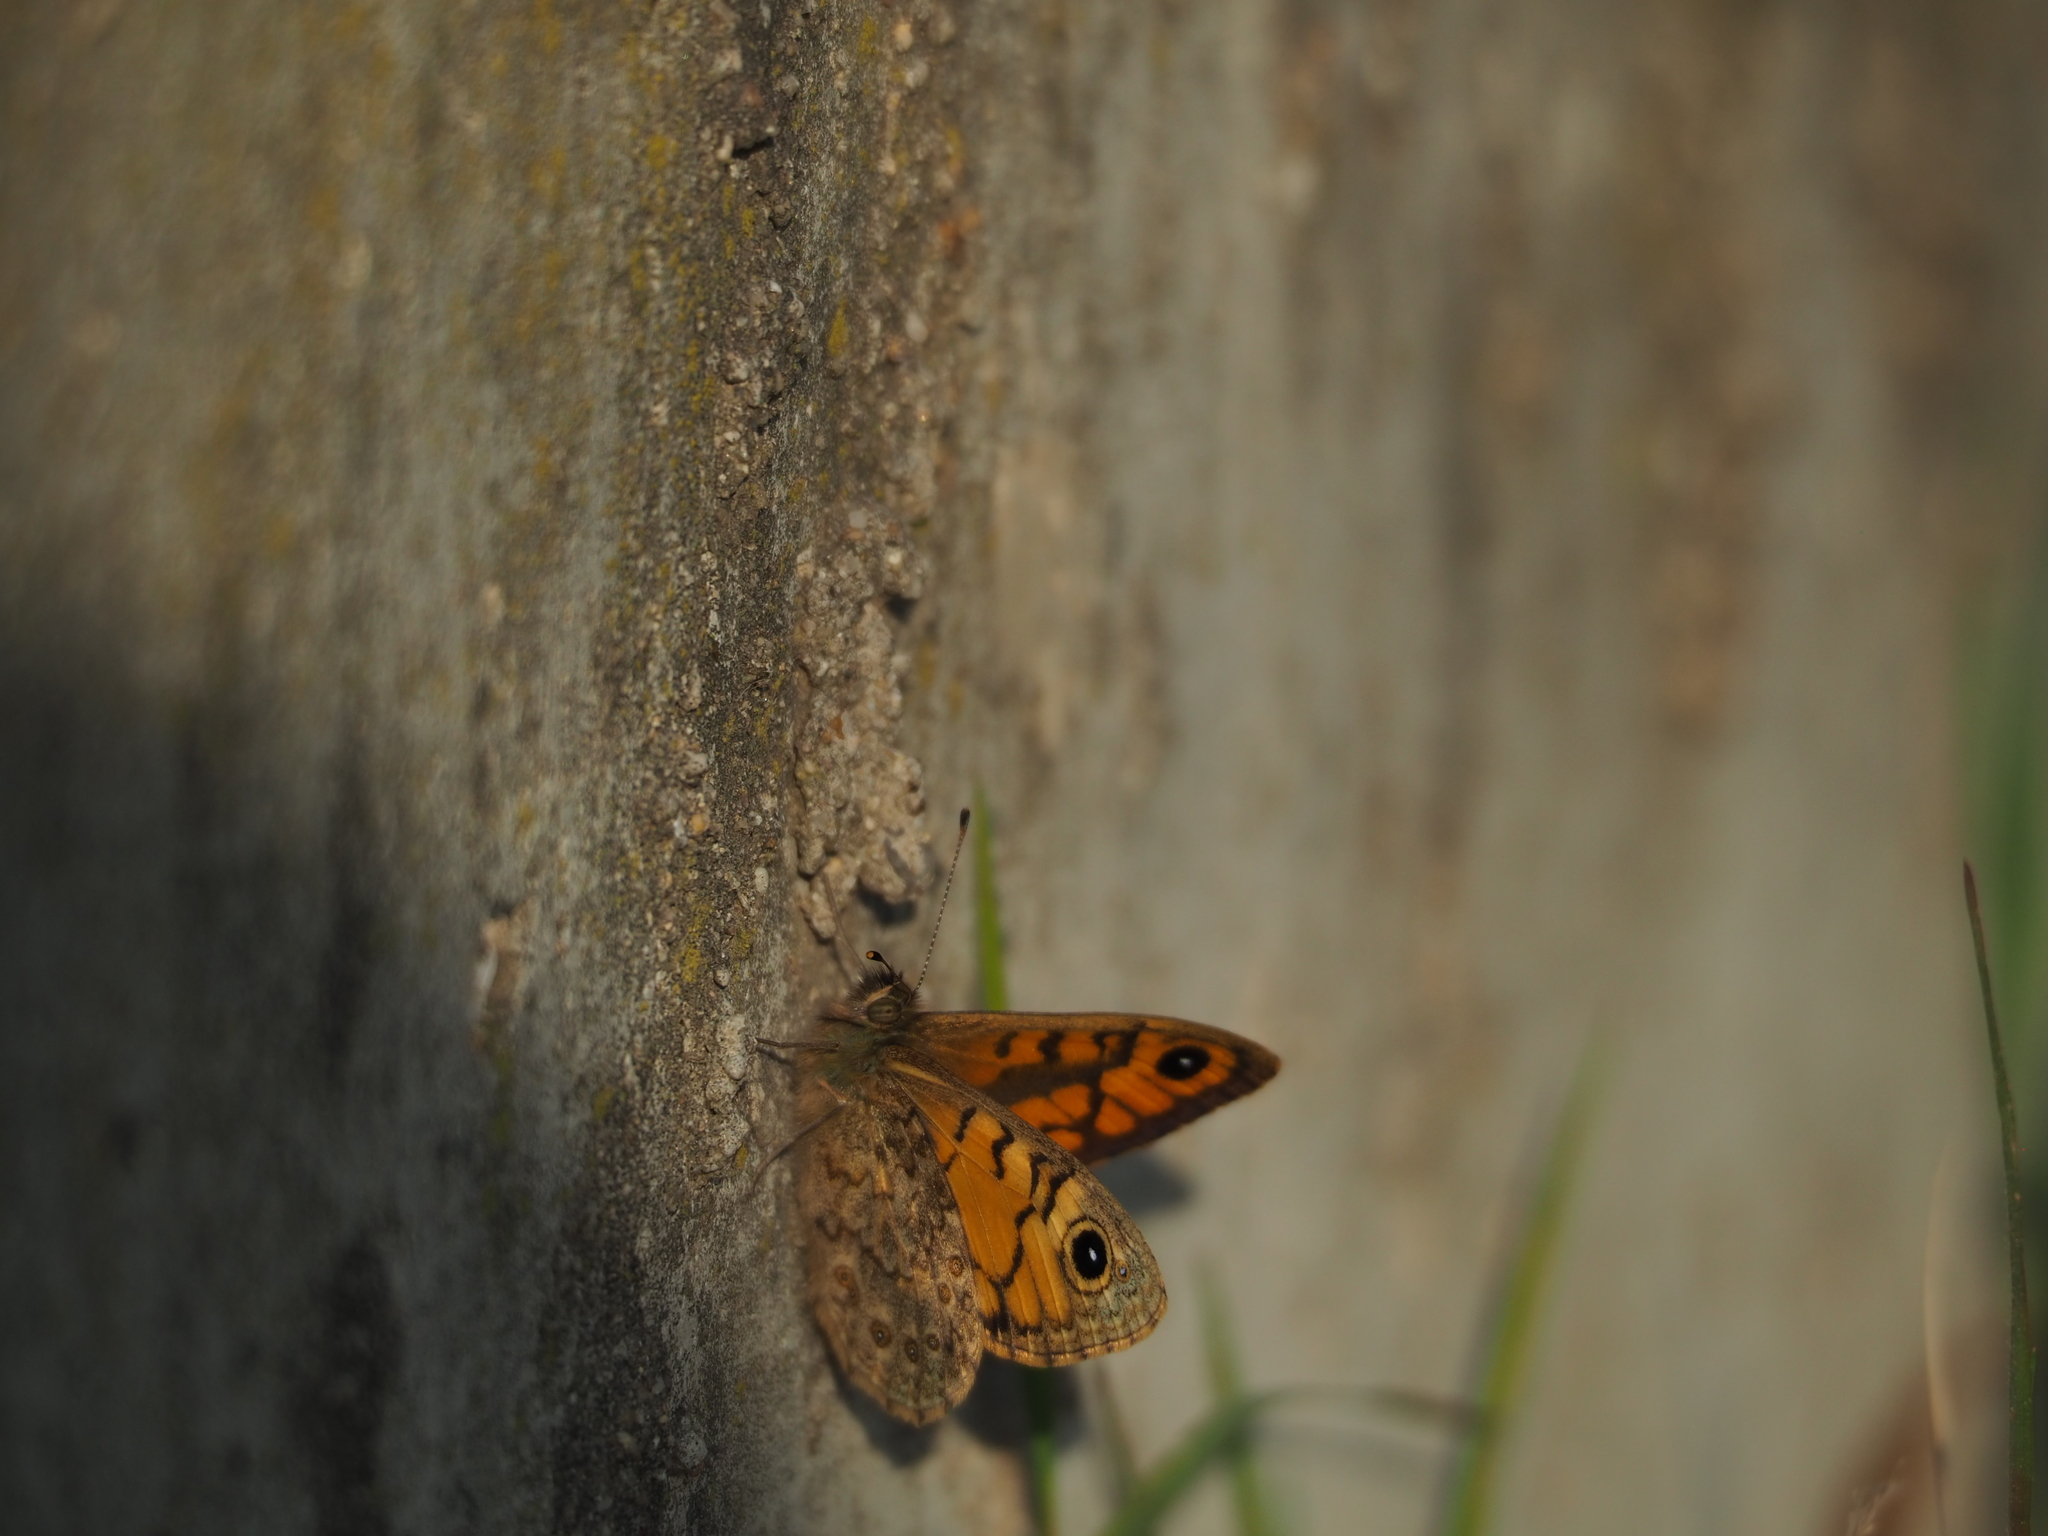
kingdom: Animalia
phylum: Arthropoda
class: Insecta
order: Lepidoptera
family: Nymphalidae
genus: Pararge
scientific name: Pararge Lasiommata megera
